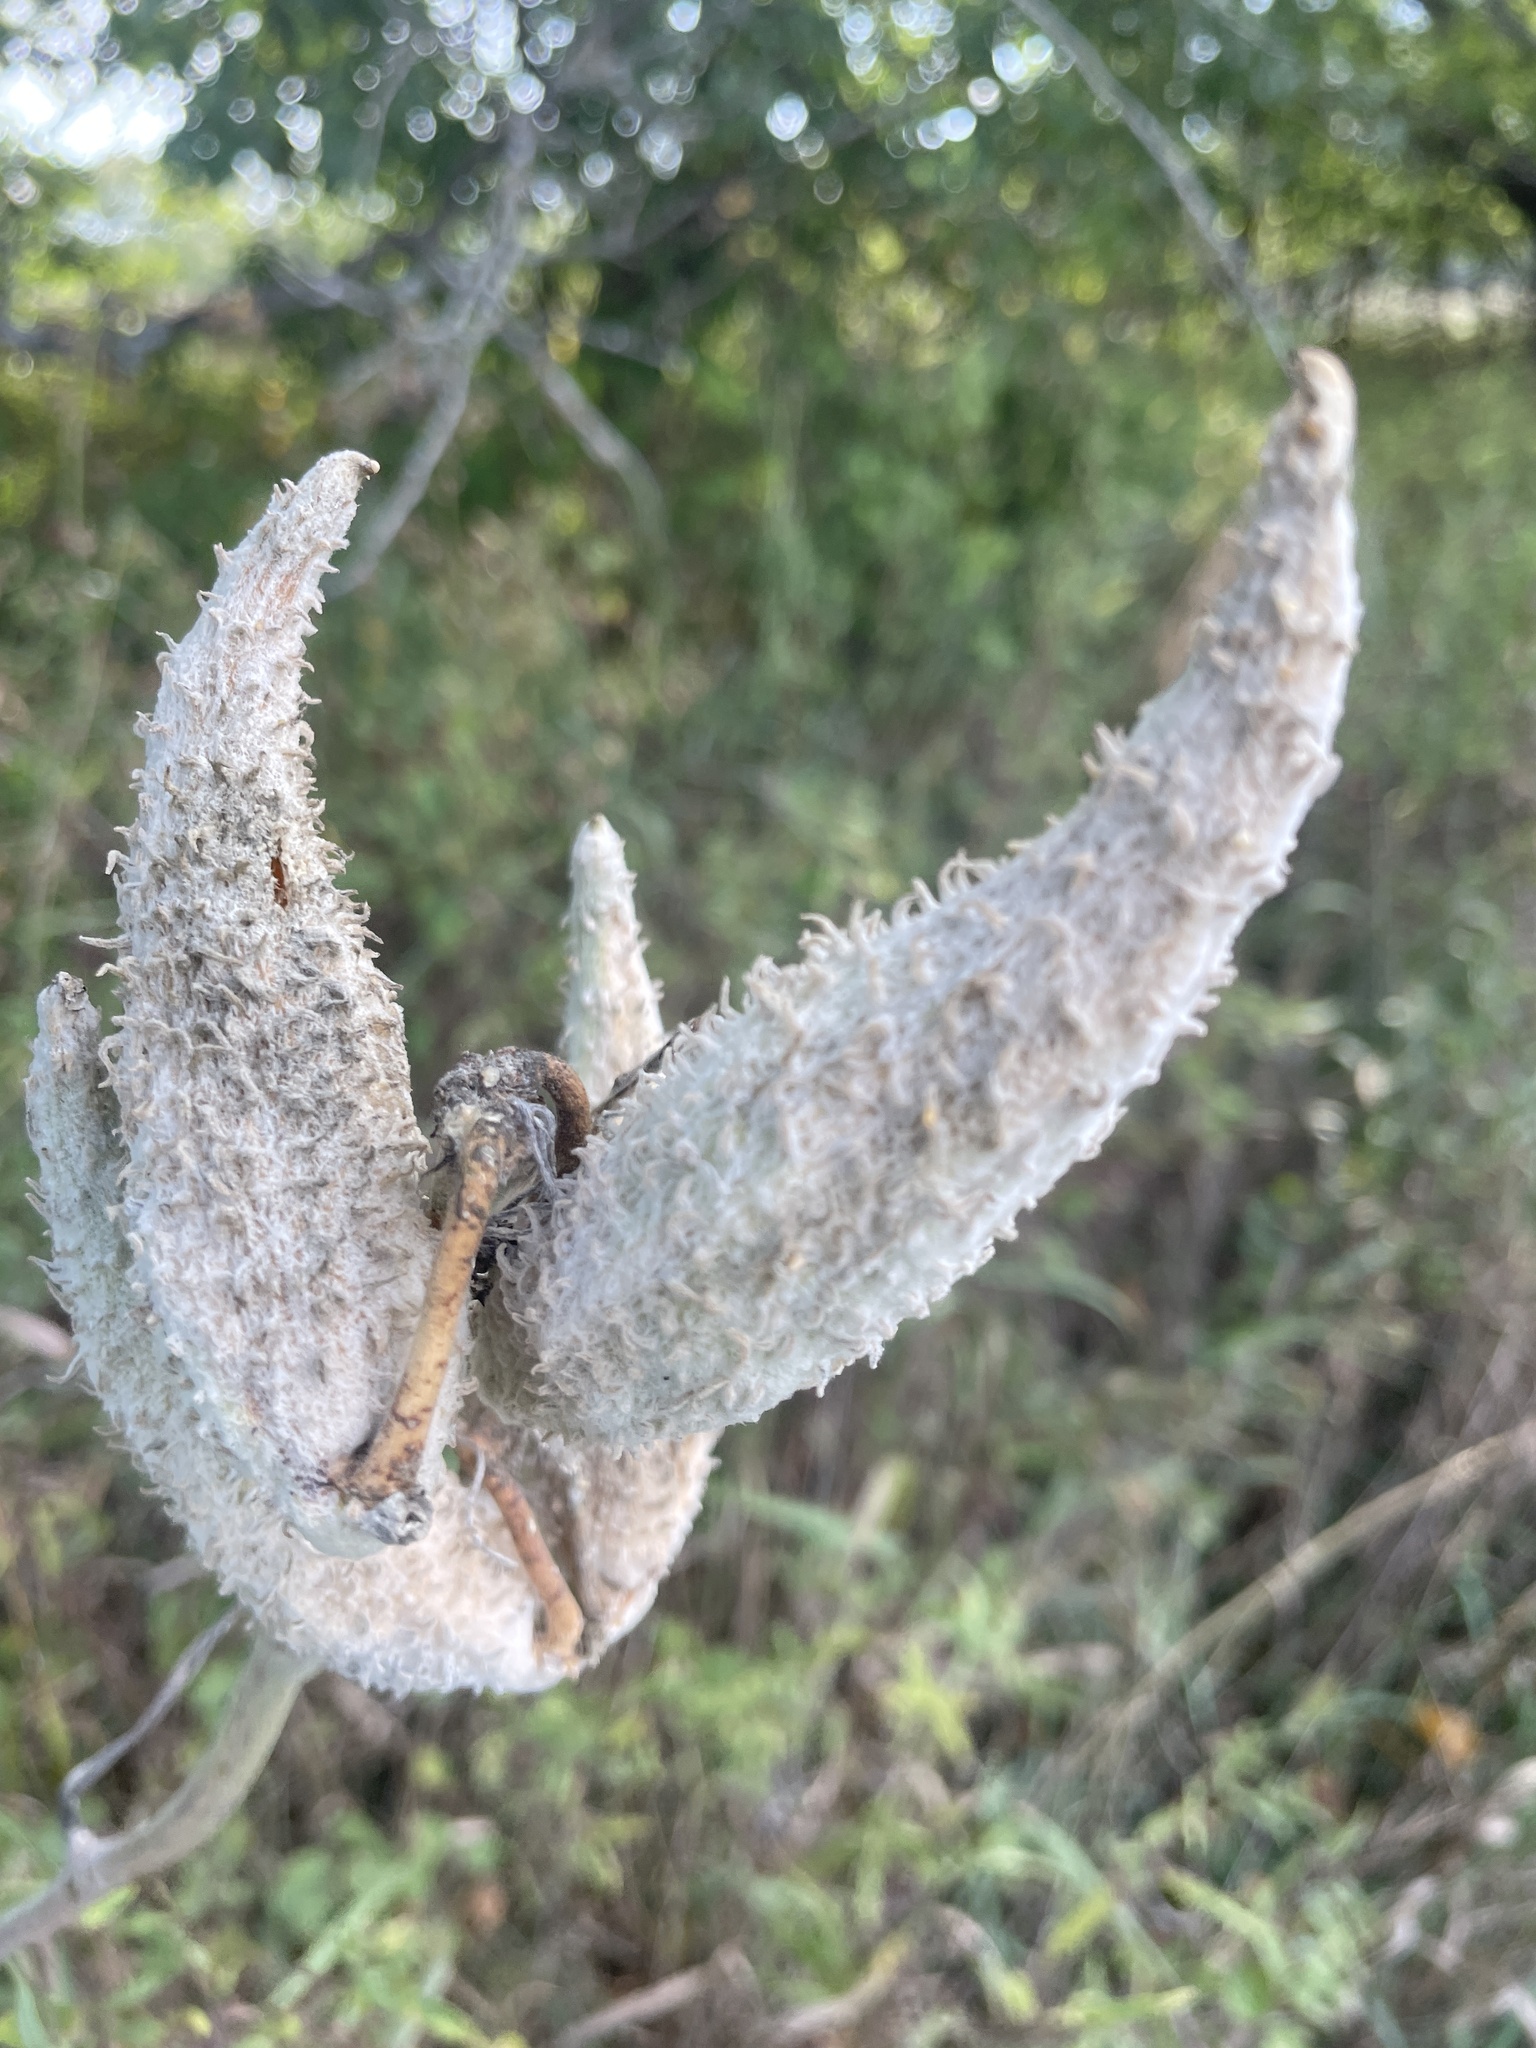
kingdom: Plantae
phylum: Tracheophyta
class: Magnoliopsida
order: Gentianales
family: Apocynaceae
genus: Asclepias
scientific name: Asclepias syriaca
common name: Common milkweed
